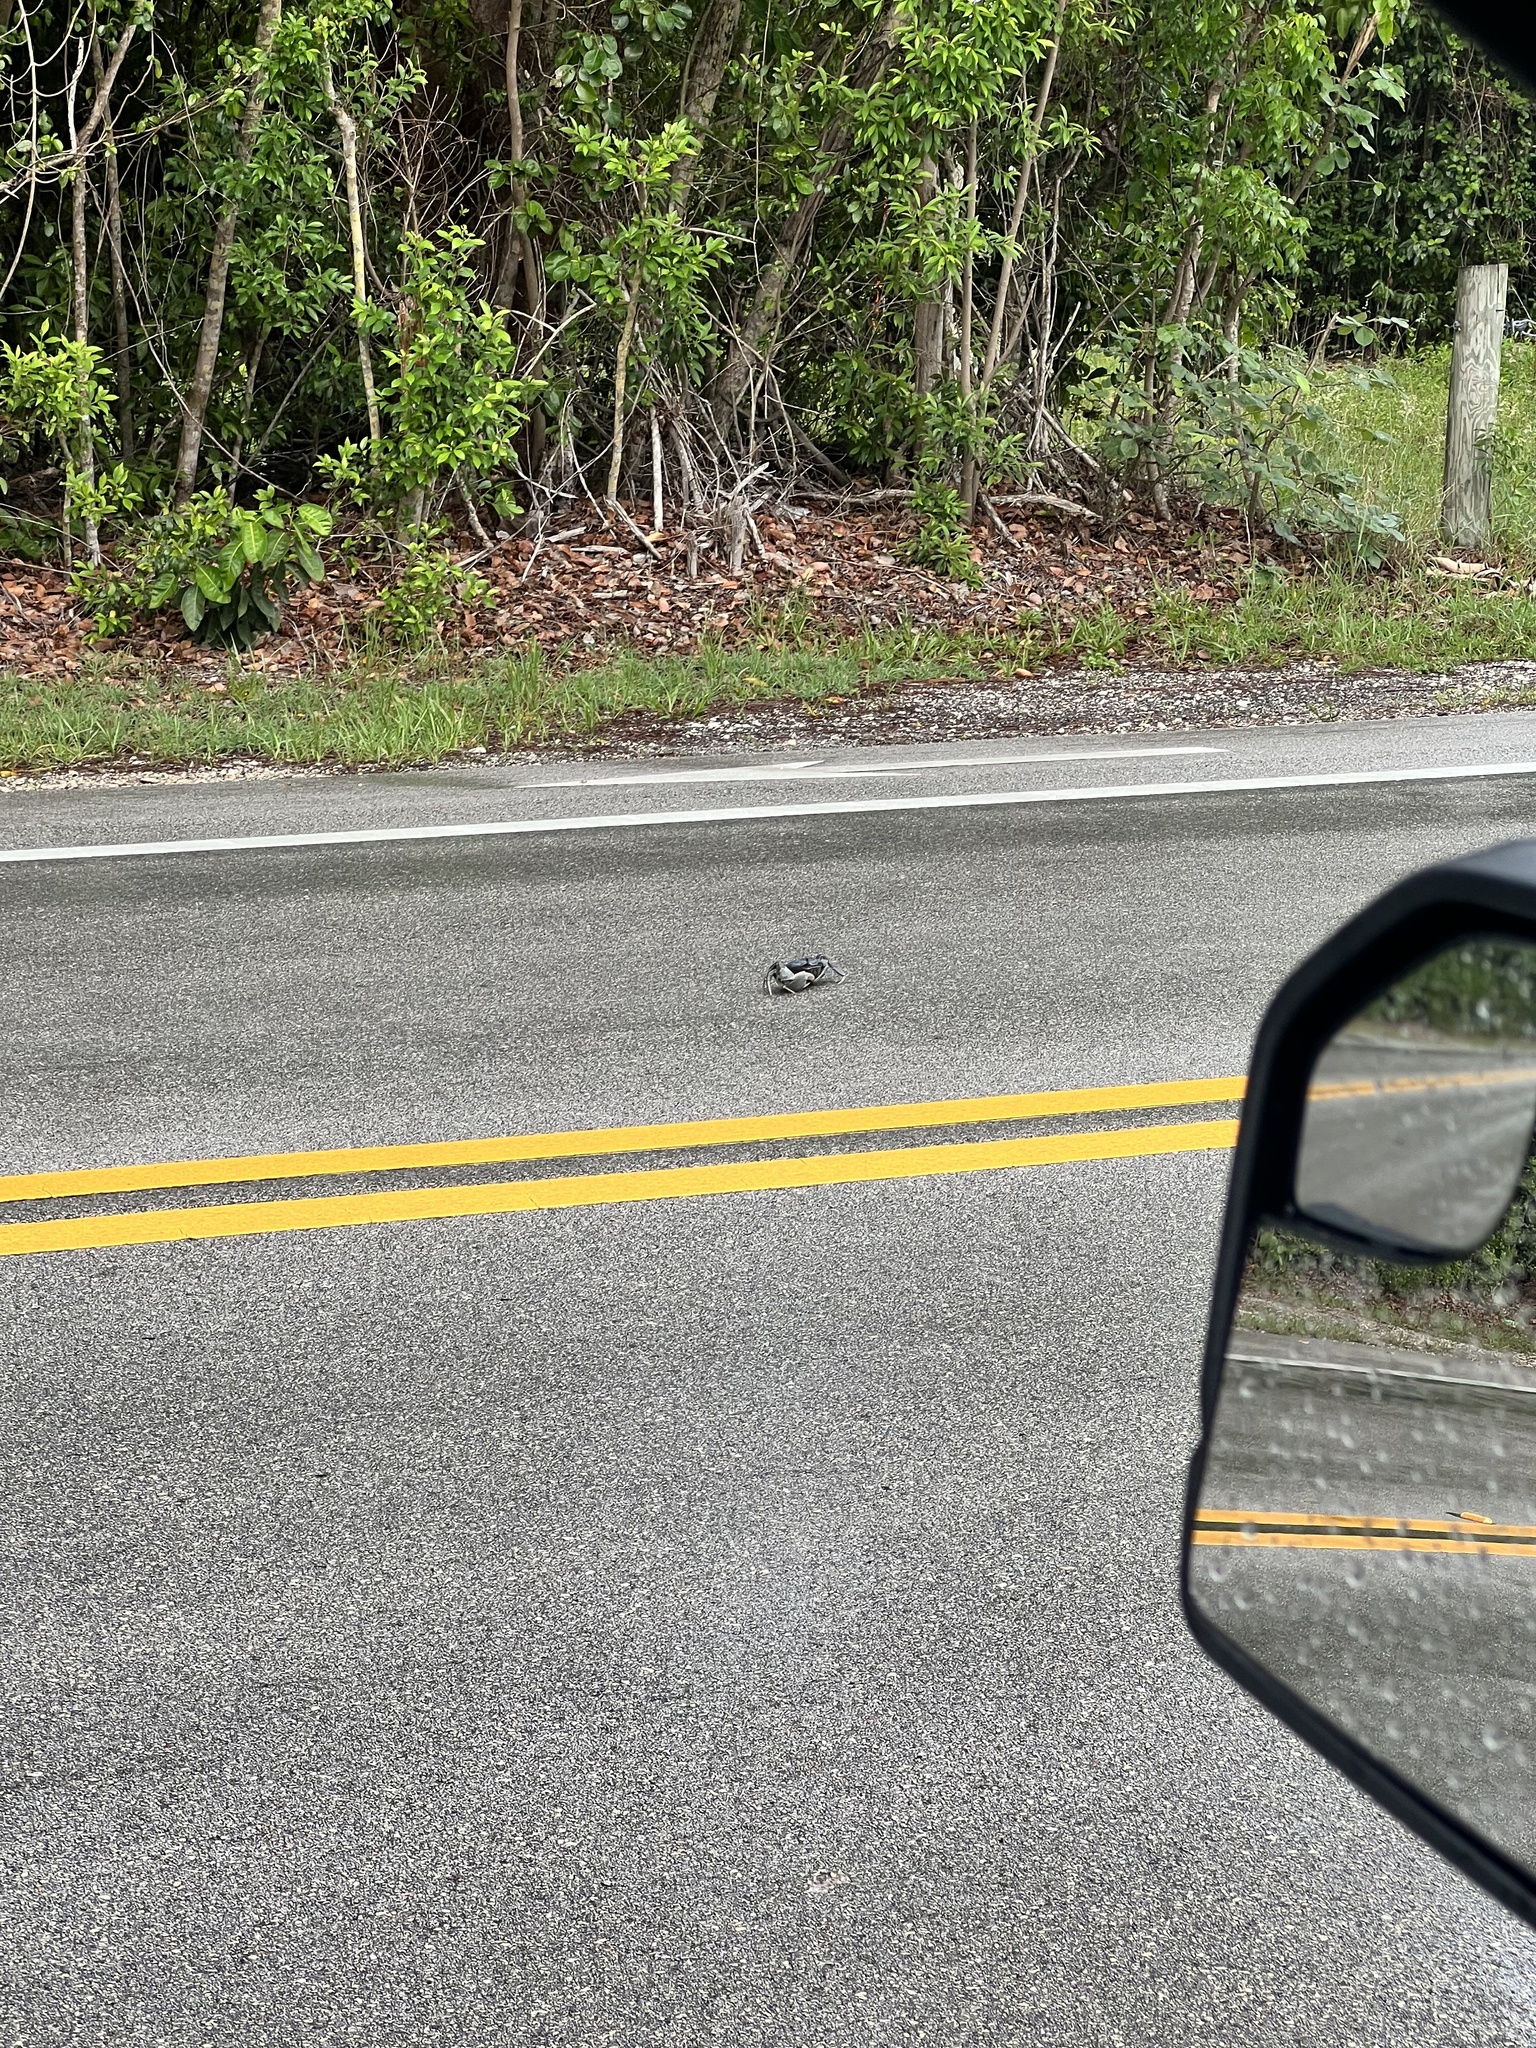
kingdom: Animalia
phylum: Arthropoda
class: Malacostraca
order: Decapoda
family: Gecarcinidae
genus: Cardisoma
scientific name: Cardisoma guanhumi
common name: Great land crab
